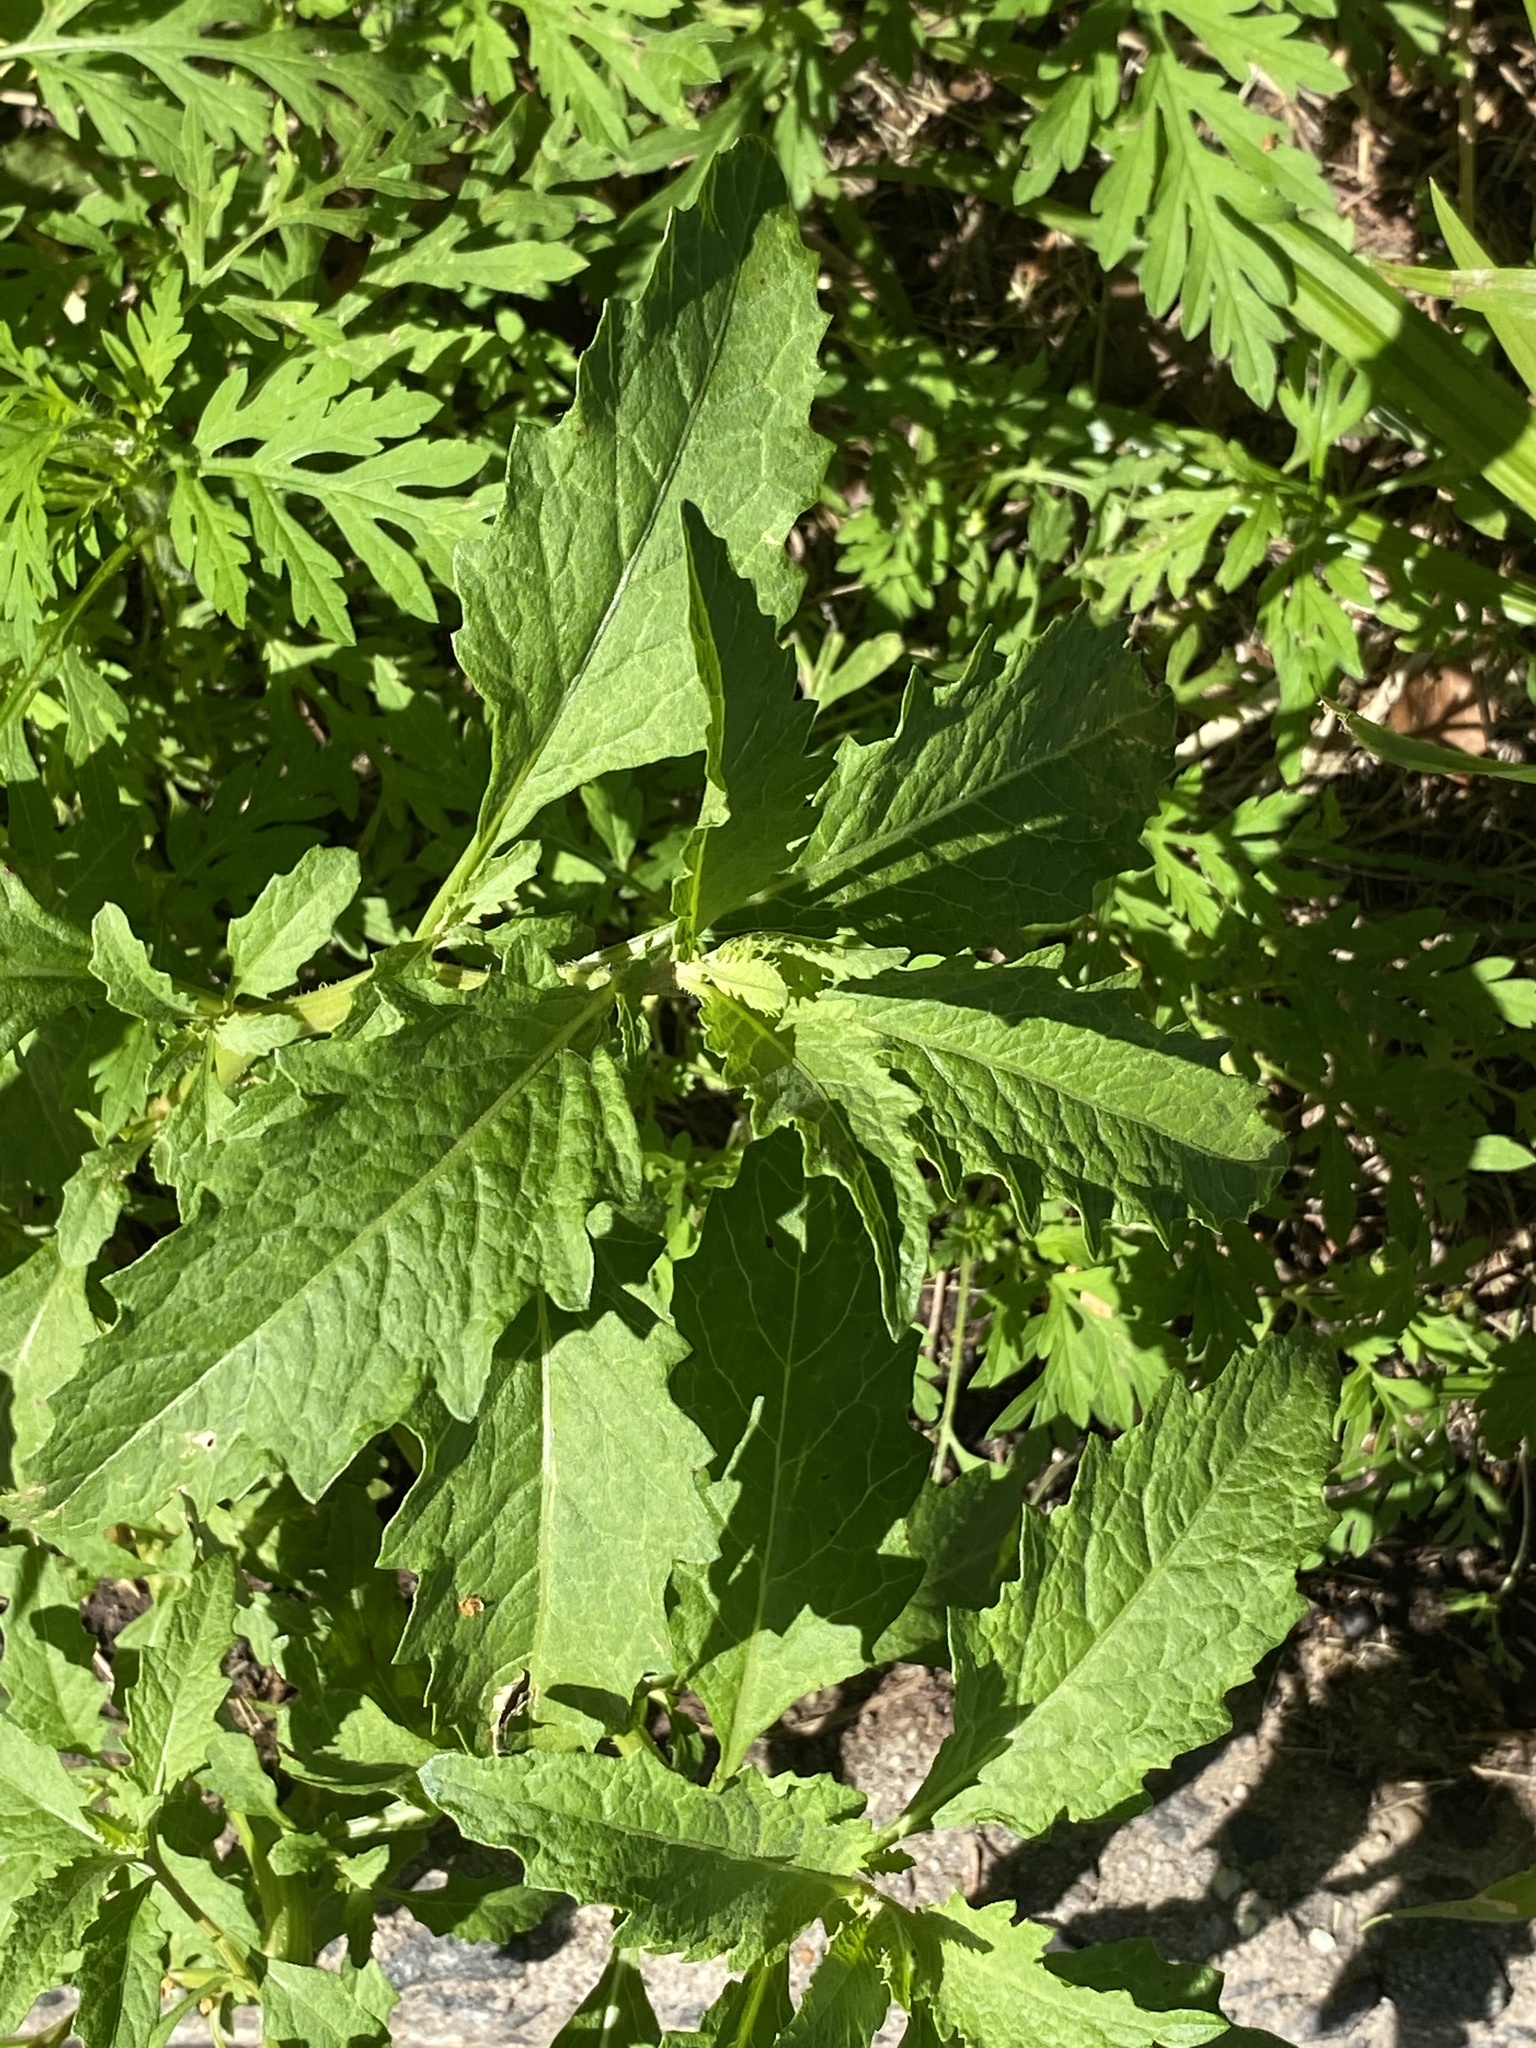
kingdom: Plantae
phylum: Tracheophyta
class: Magnoliopsida
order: Caryophyllales
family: Amaranthaceae
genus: Dysphania
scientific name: Dysphania ambrosioides
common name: Wormseed
